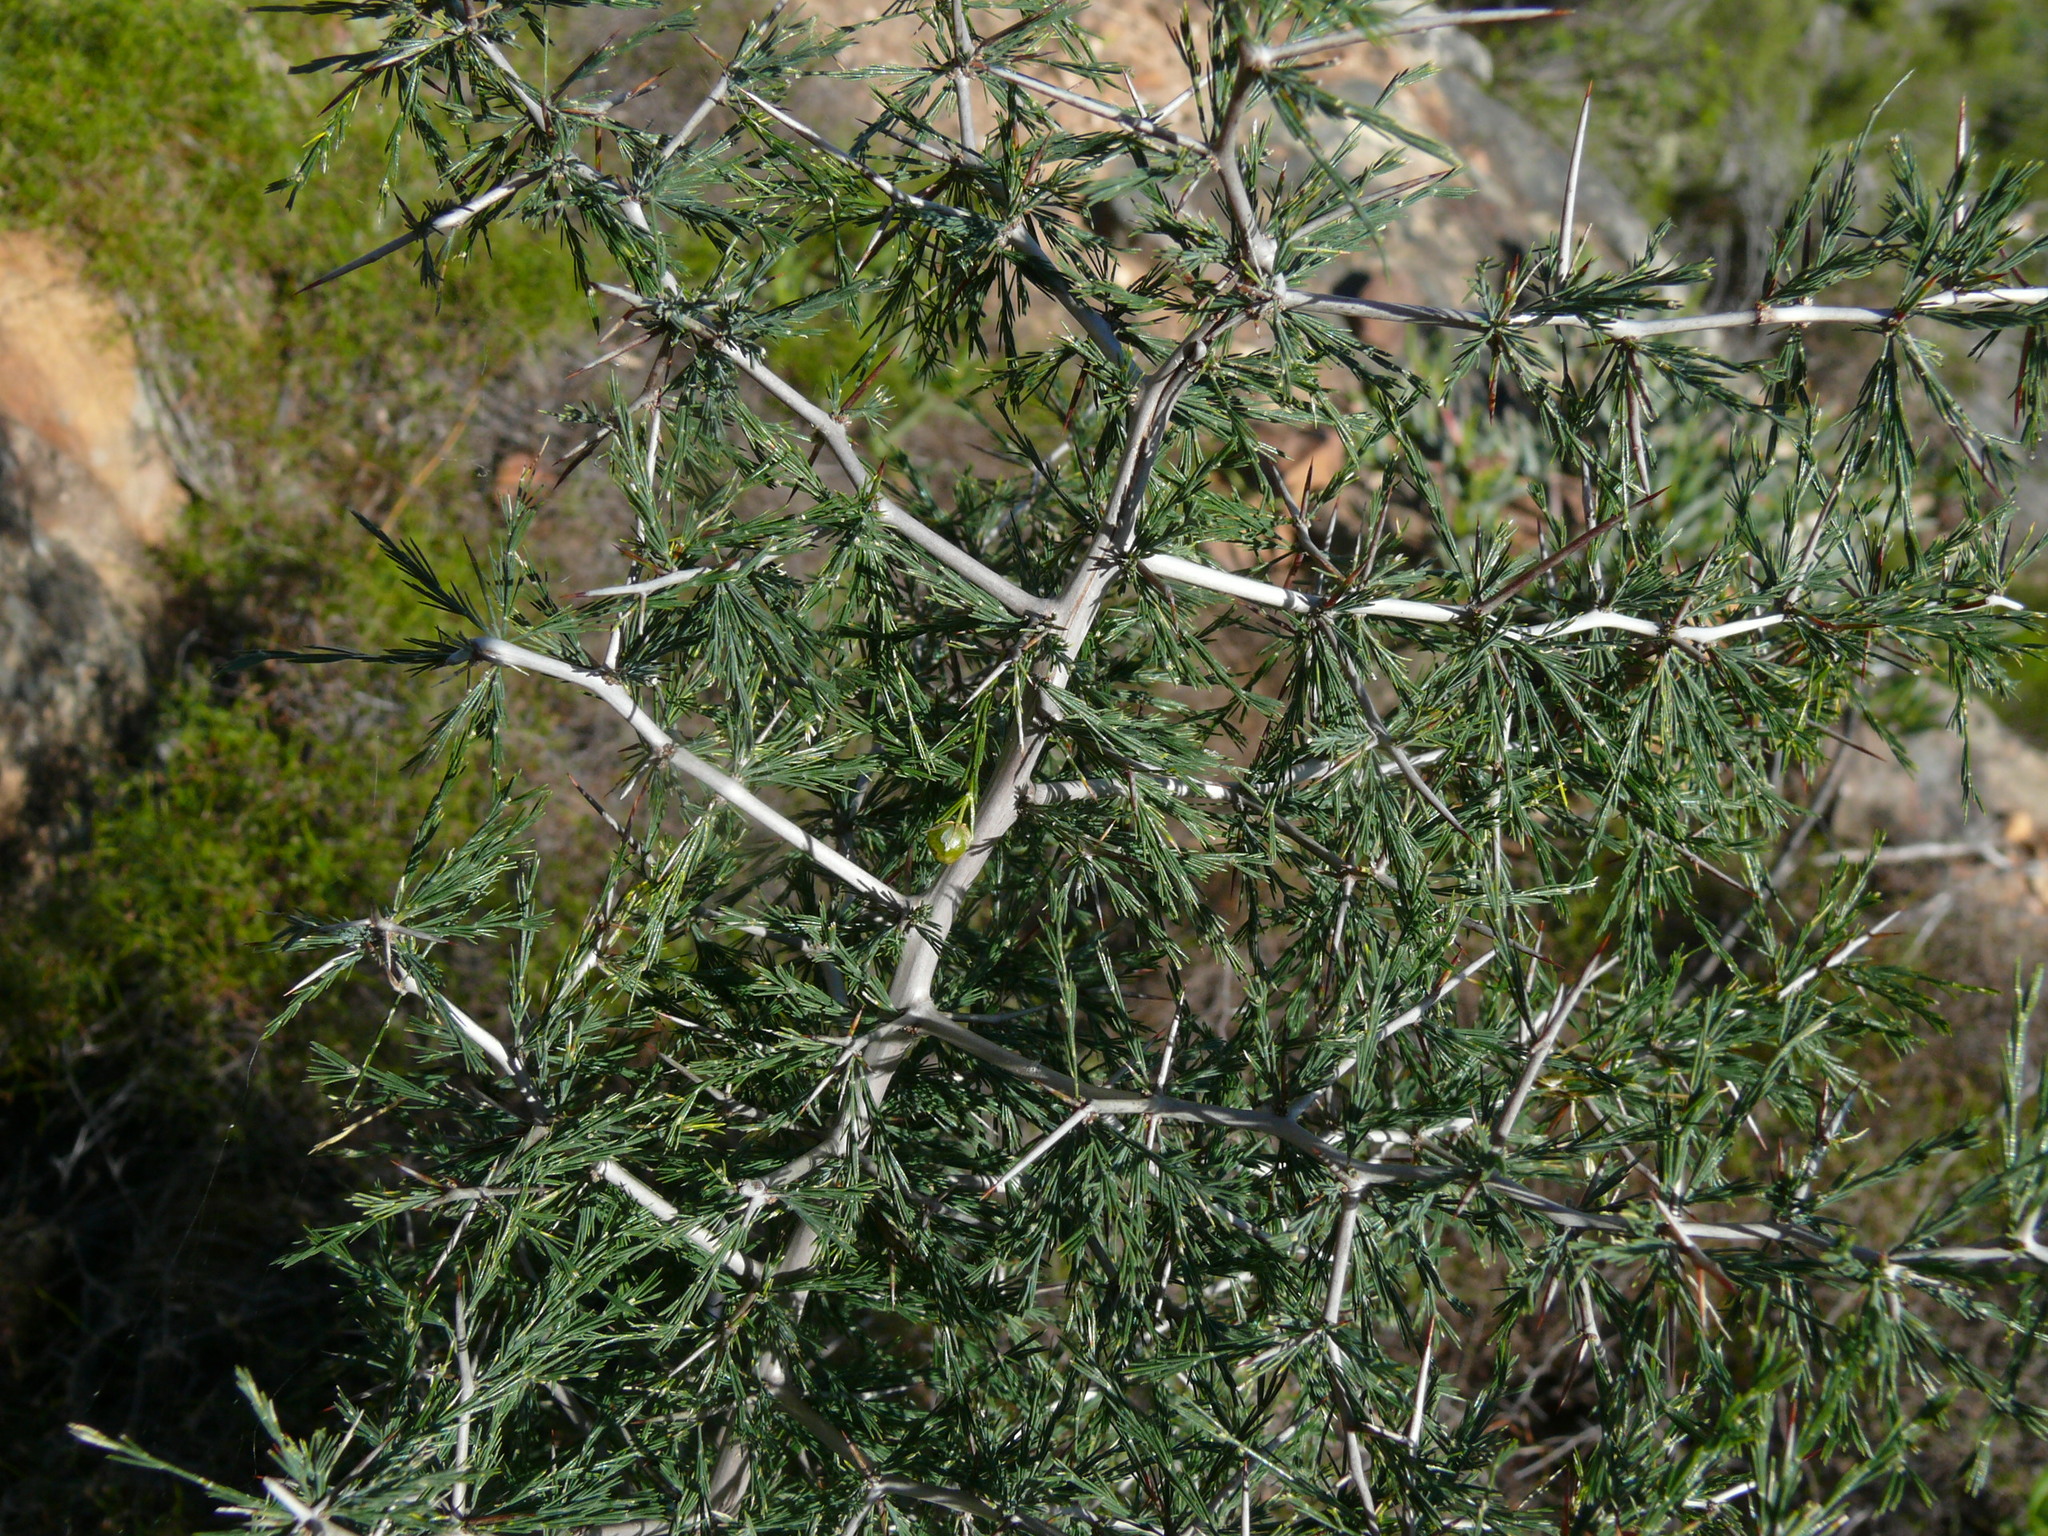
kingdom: Plantae
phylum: Tracheophyta
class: Liliopsida
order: Asparagales
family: Asparagaceae
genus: Asparagus
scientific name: Asparagus lignosus
